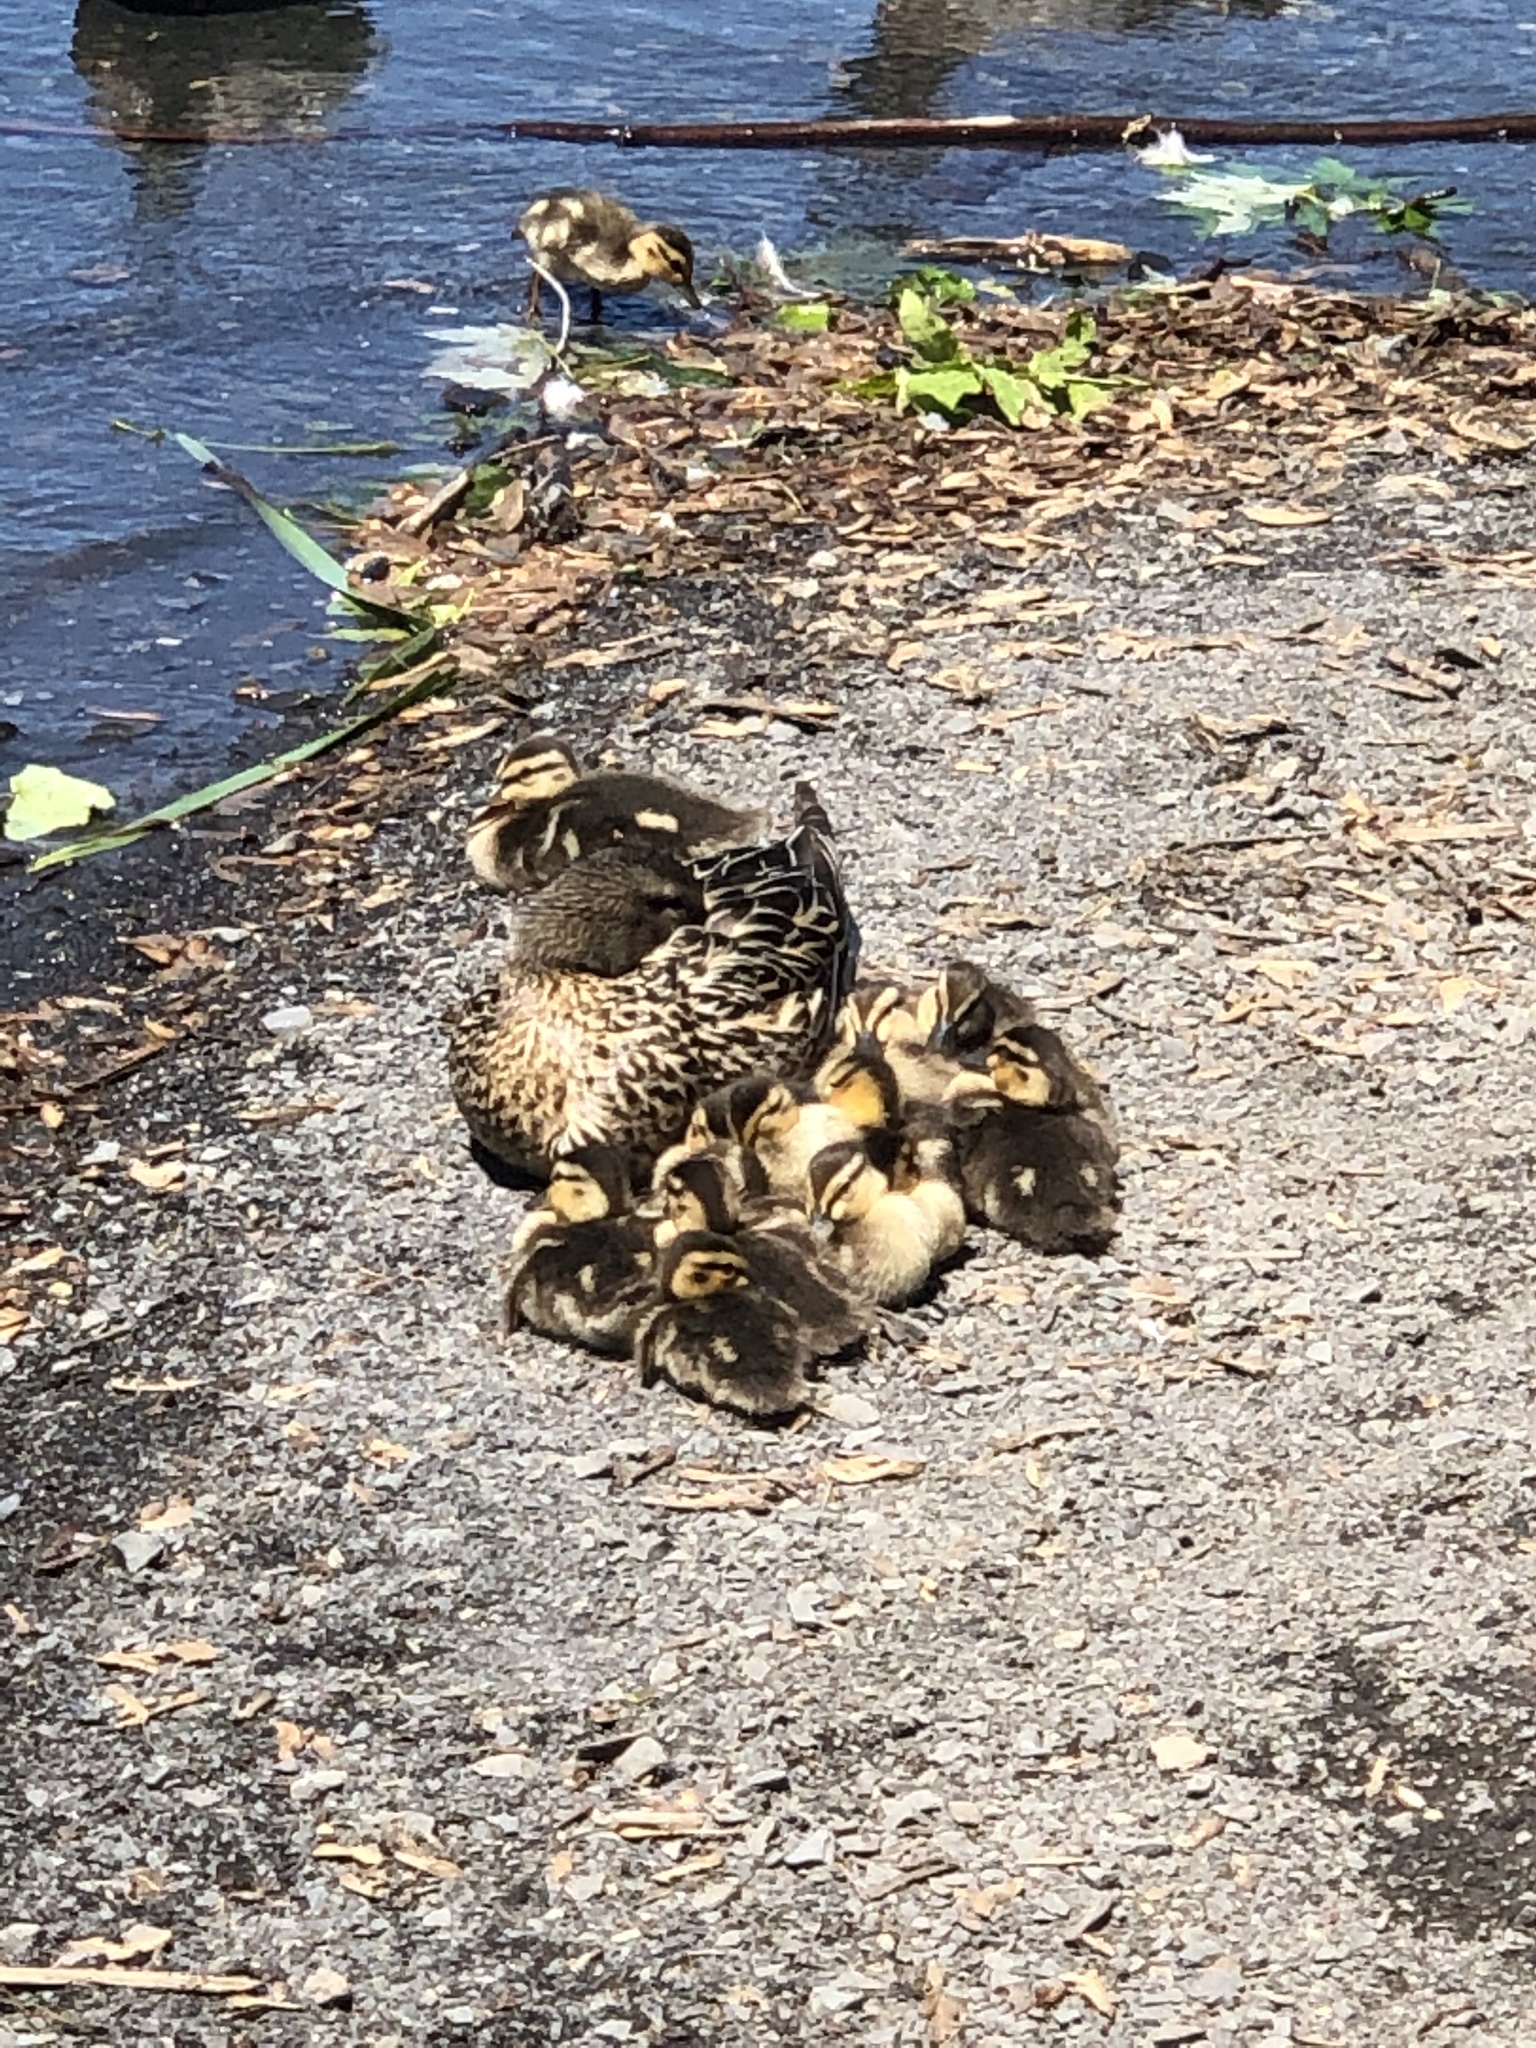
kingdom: Animalia
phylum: Chordata
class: Aves
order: Anseriformes
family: Anatidae
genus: Anas
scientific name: Anas platyrhynchos
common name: Mallard
